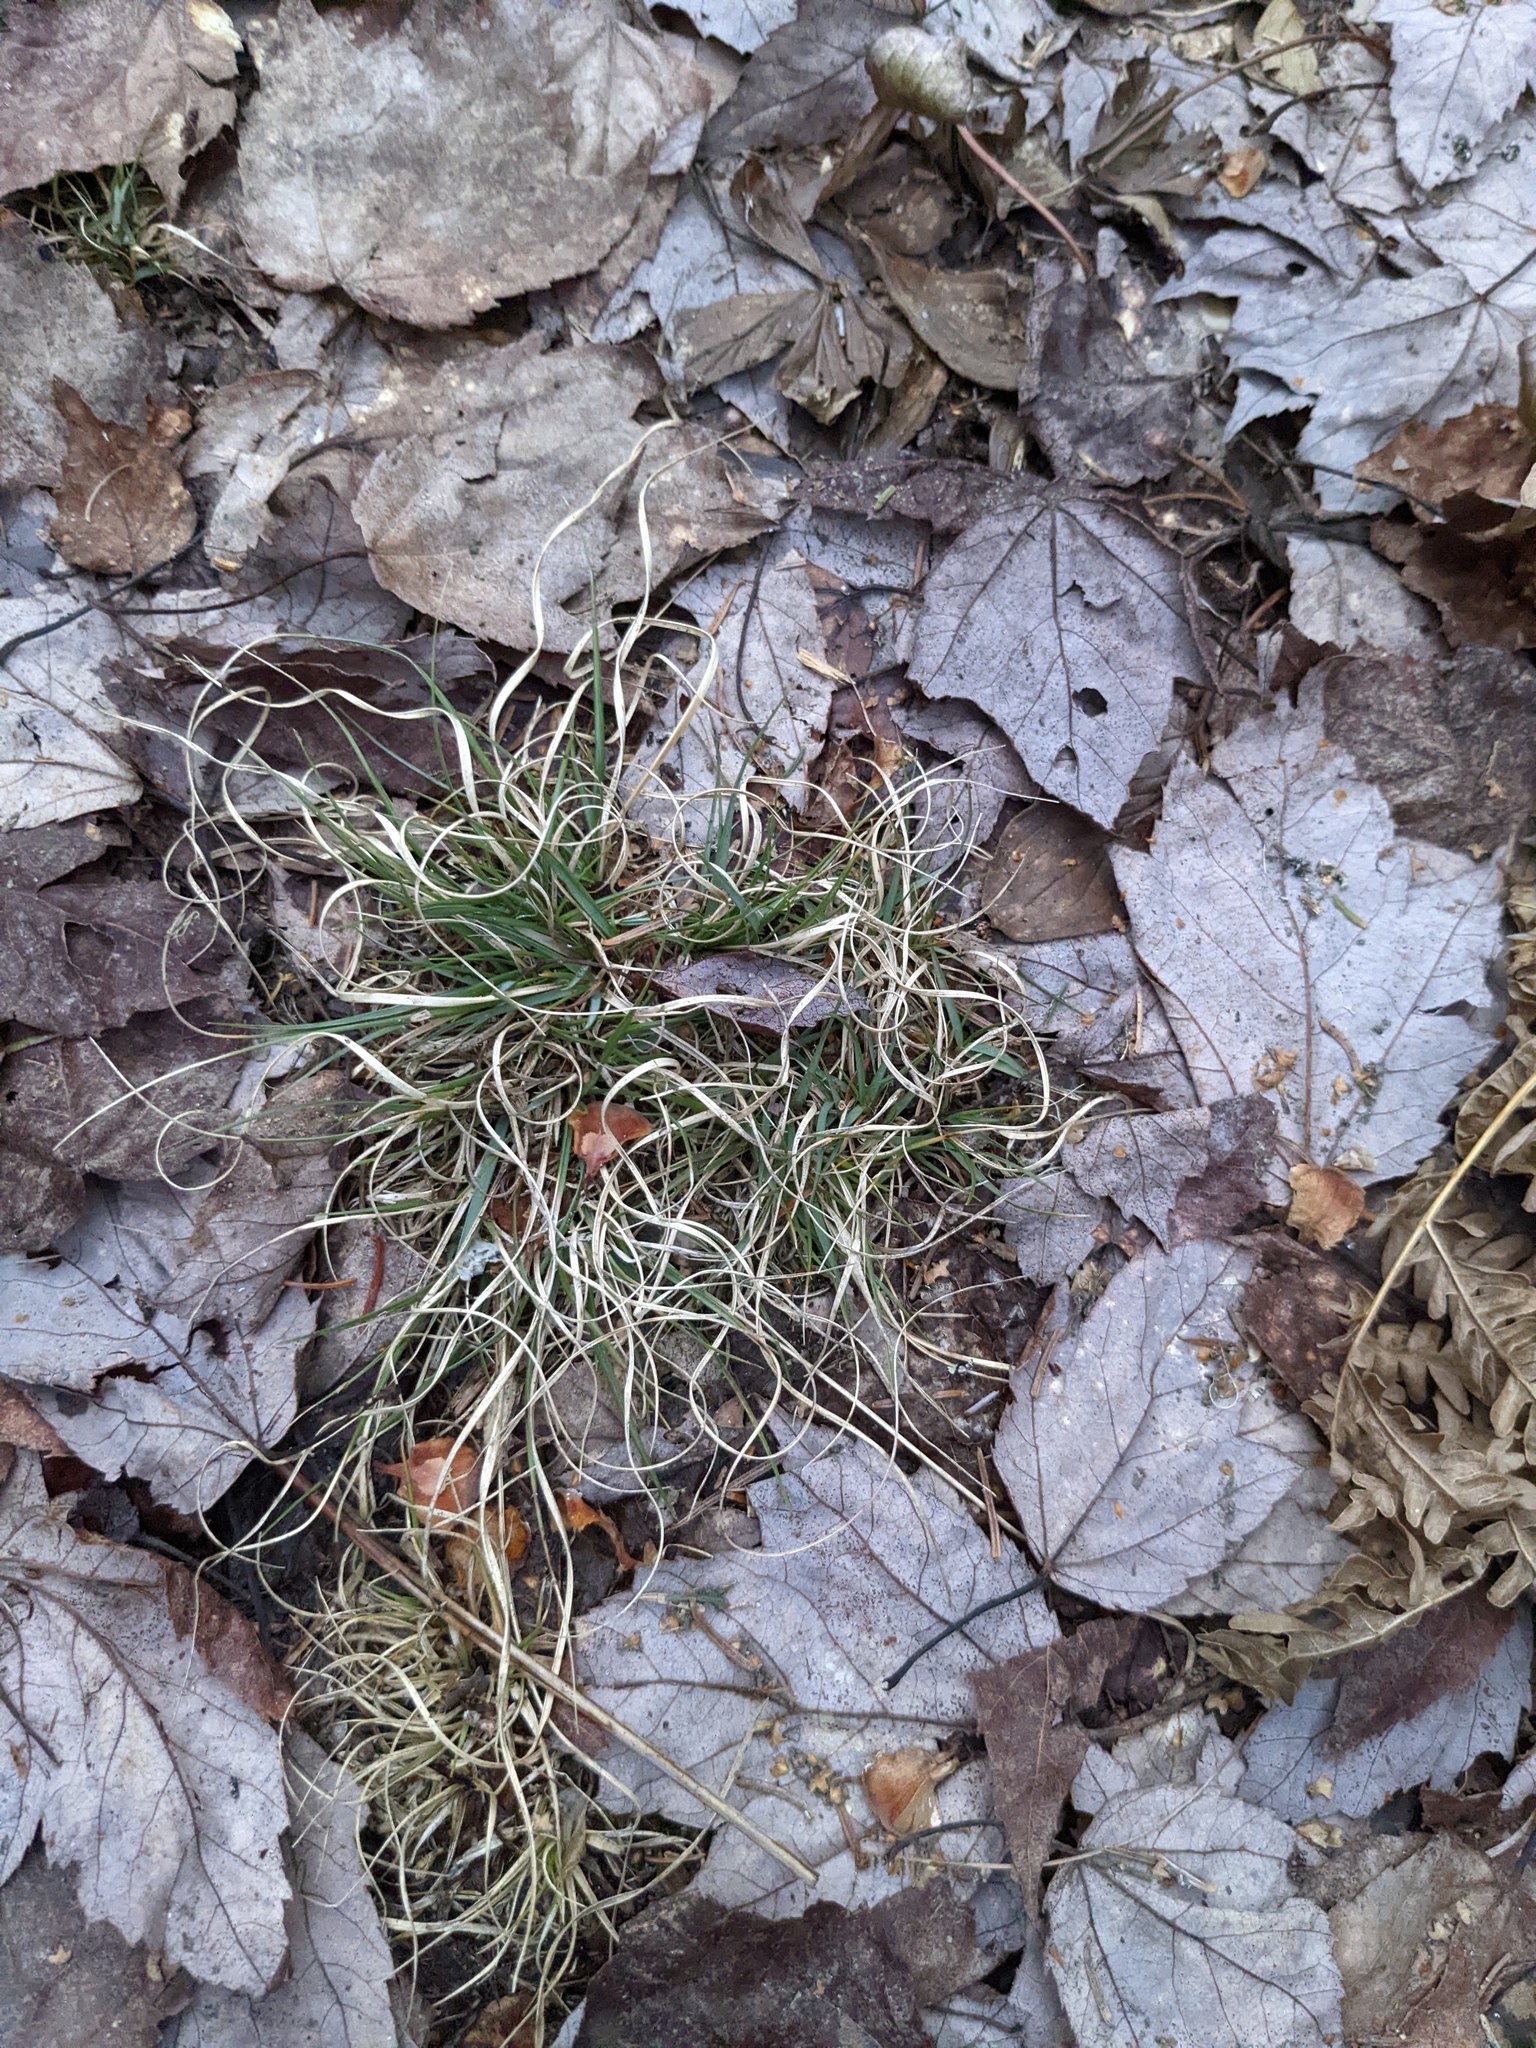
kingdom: Plantae
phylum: Tracheophyta
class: Liliopsida
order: Poales
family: Poaceae
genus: Danthonia
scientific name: Danthonia spicata
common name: Common wild oatgrass
